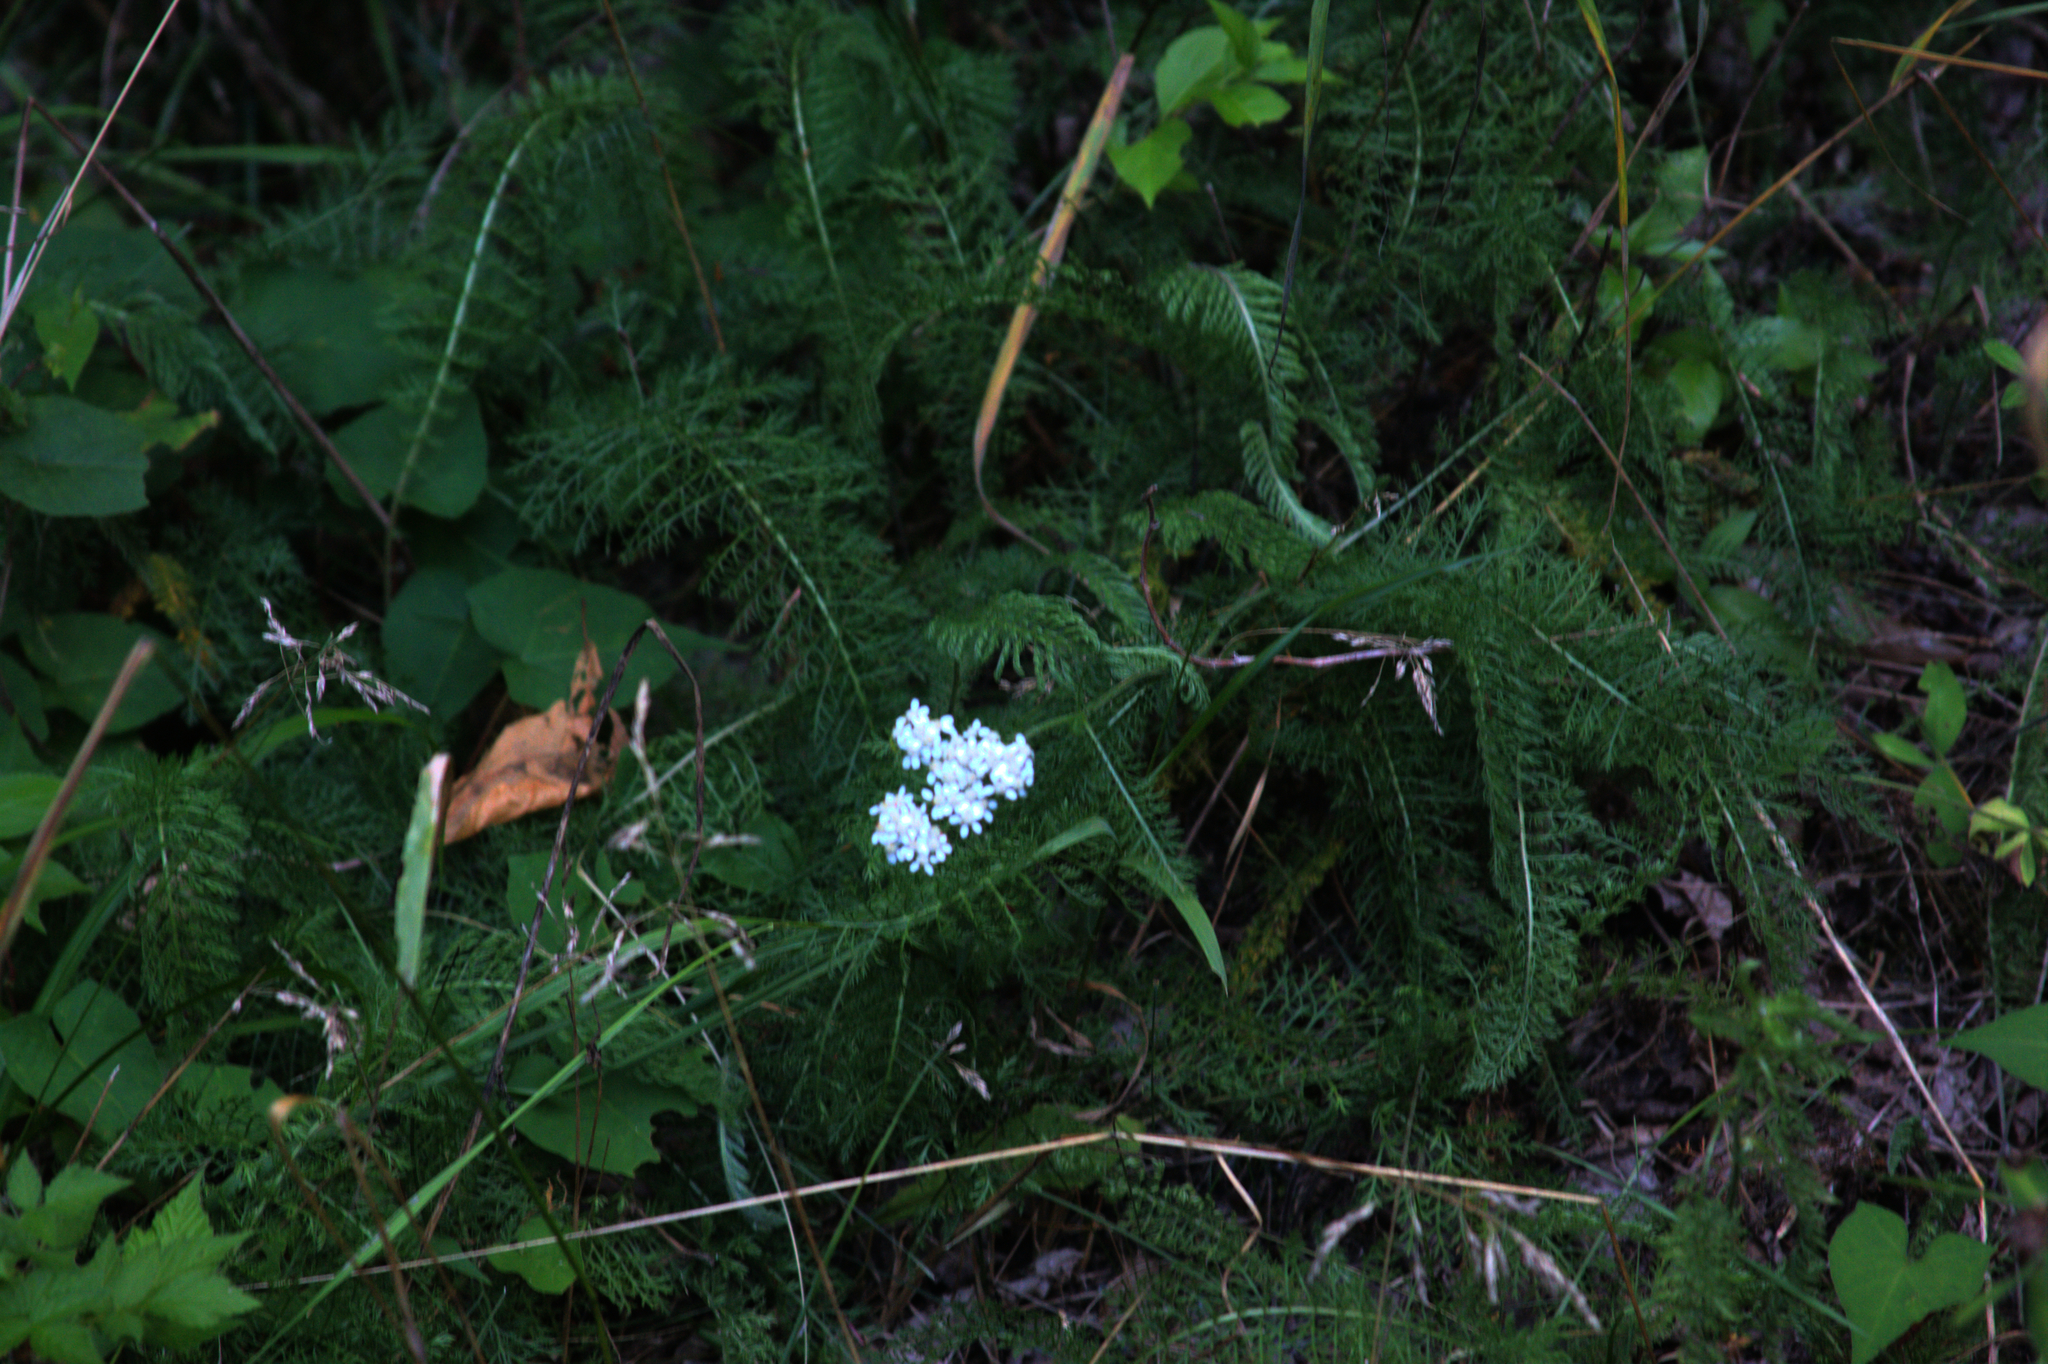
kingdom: Plantae
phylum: Tracheophyta
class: Magnoliopsida
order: Asterales
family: Asteraceae
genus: Achillea
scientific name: Achillea millefolium
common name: Yarrow
